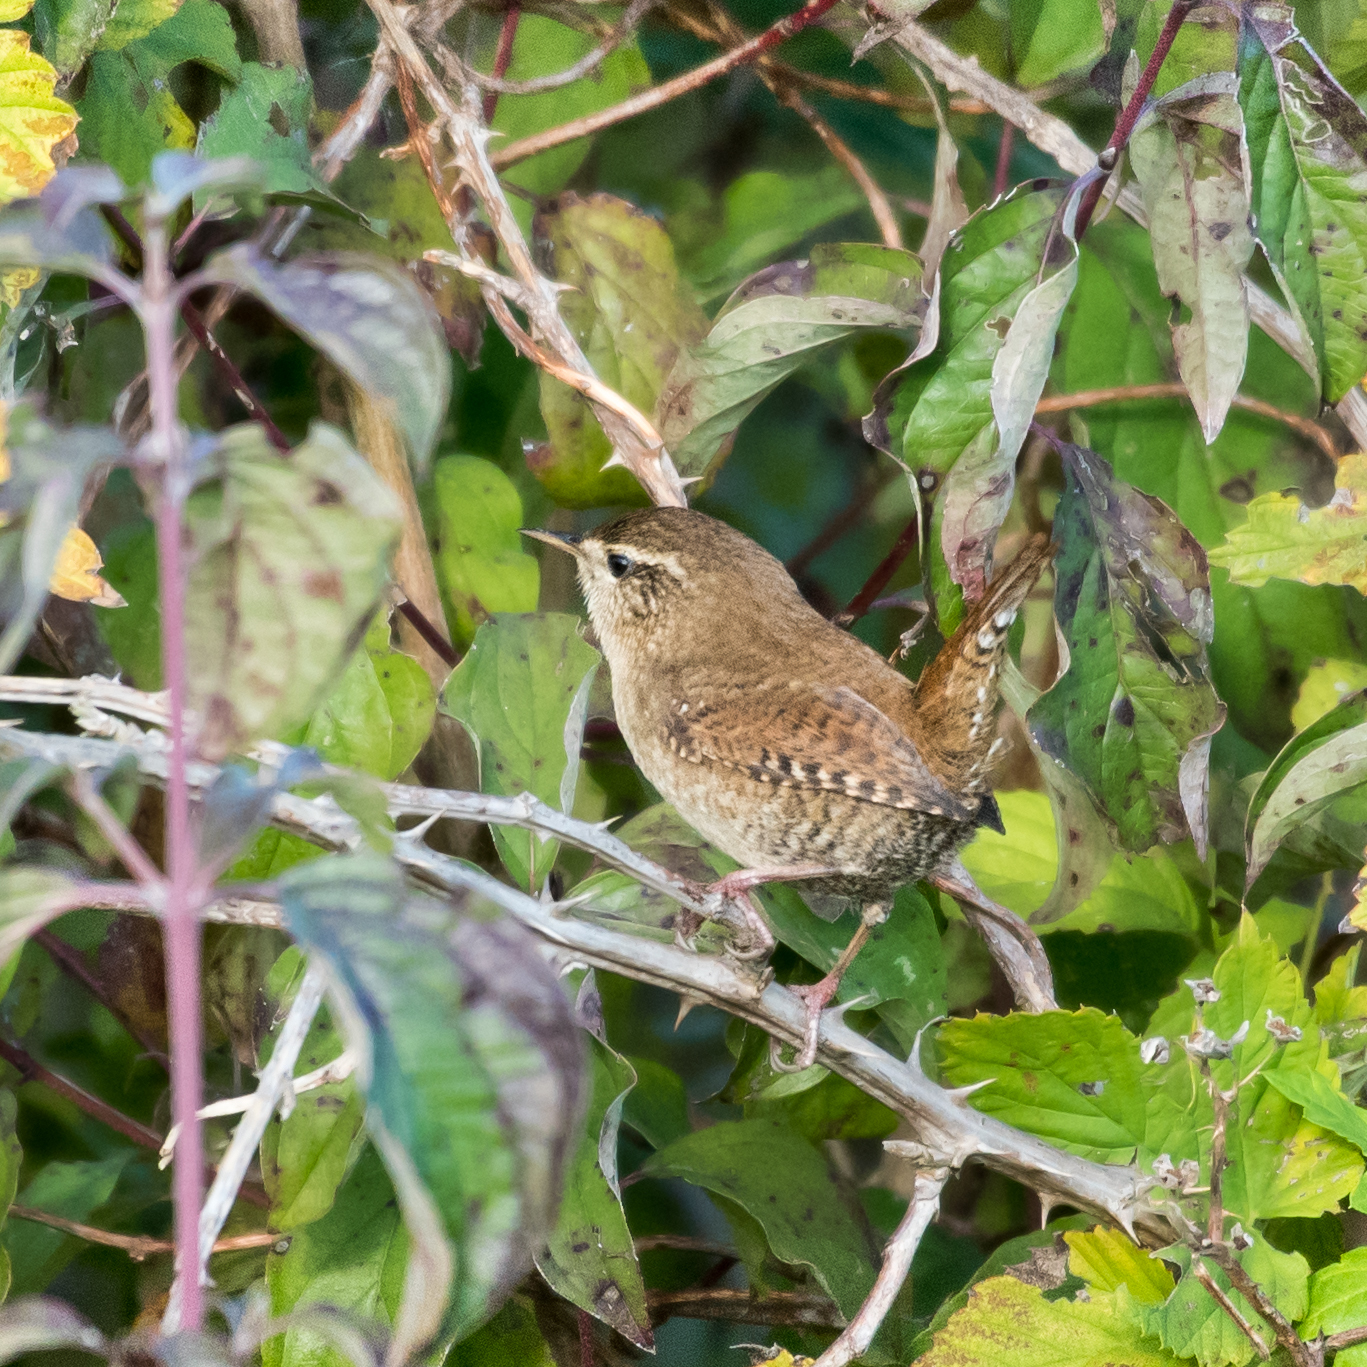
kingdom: Animalia
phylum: Chordata
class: Aves
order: Passeriformes
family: Troglodytidae
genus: Troglodytes
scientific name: Troglodytes troglodytes
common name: Eurasian wren
